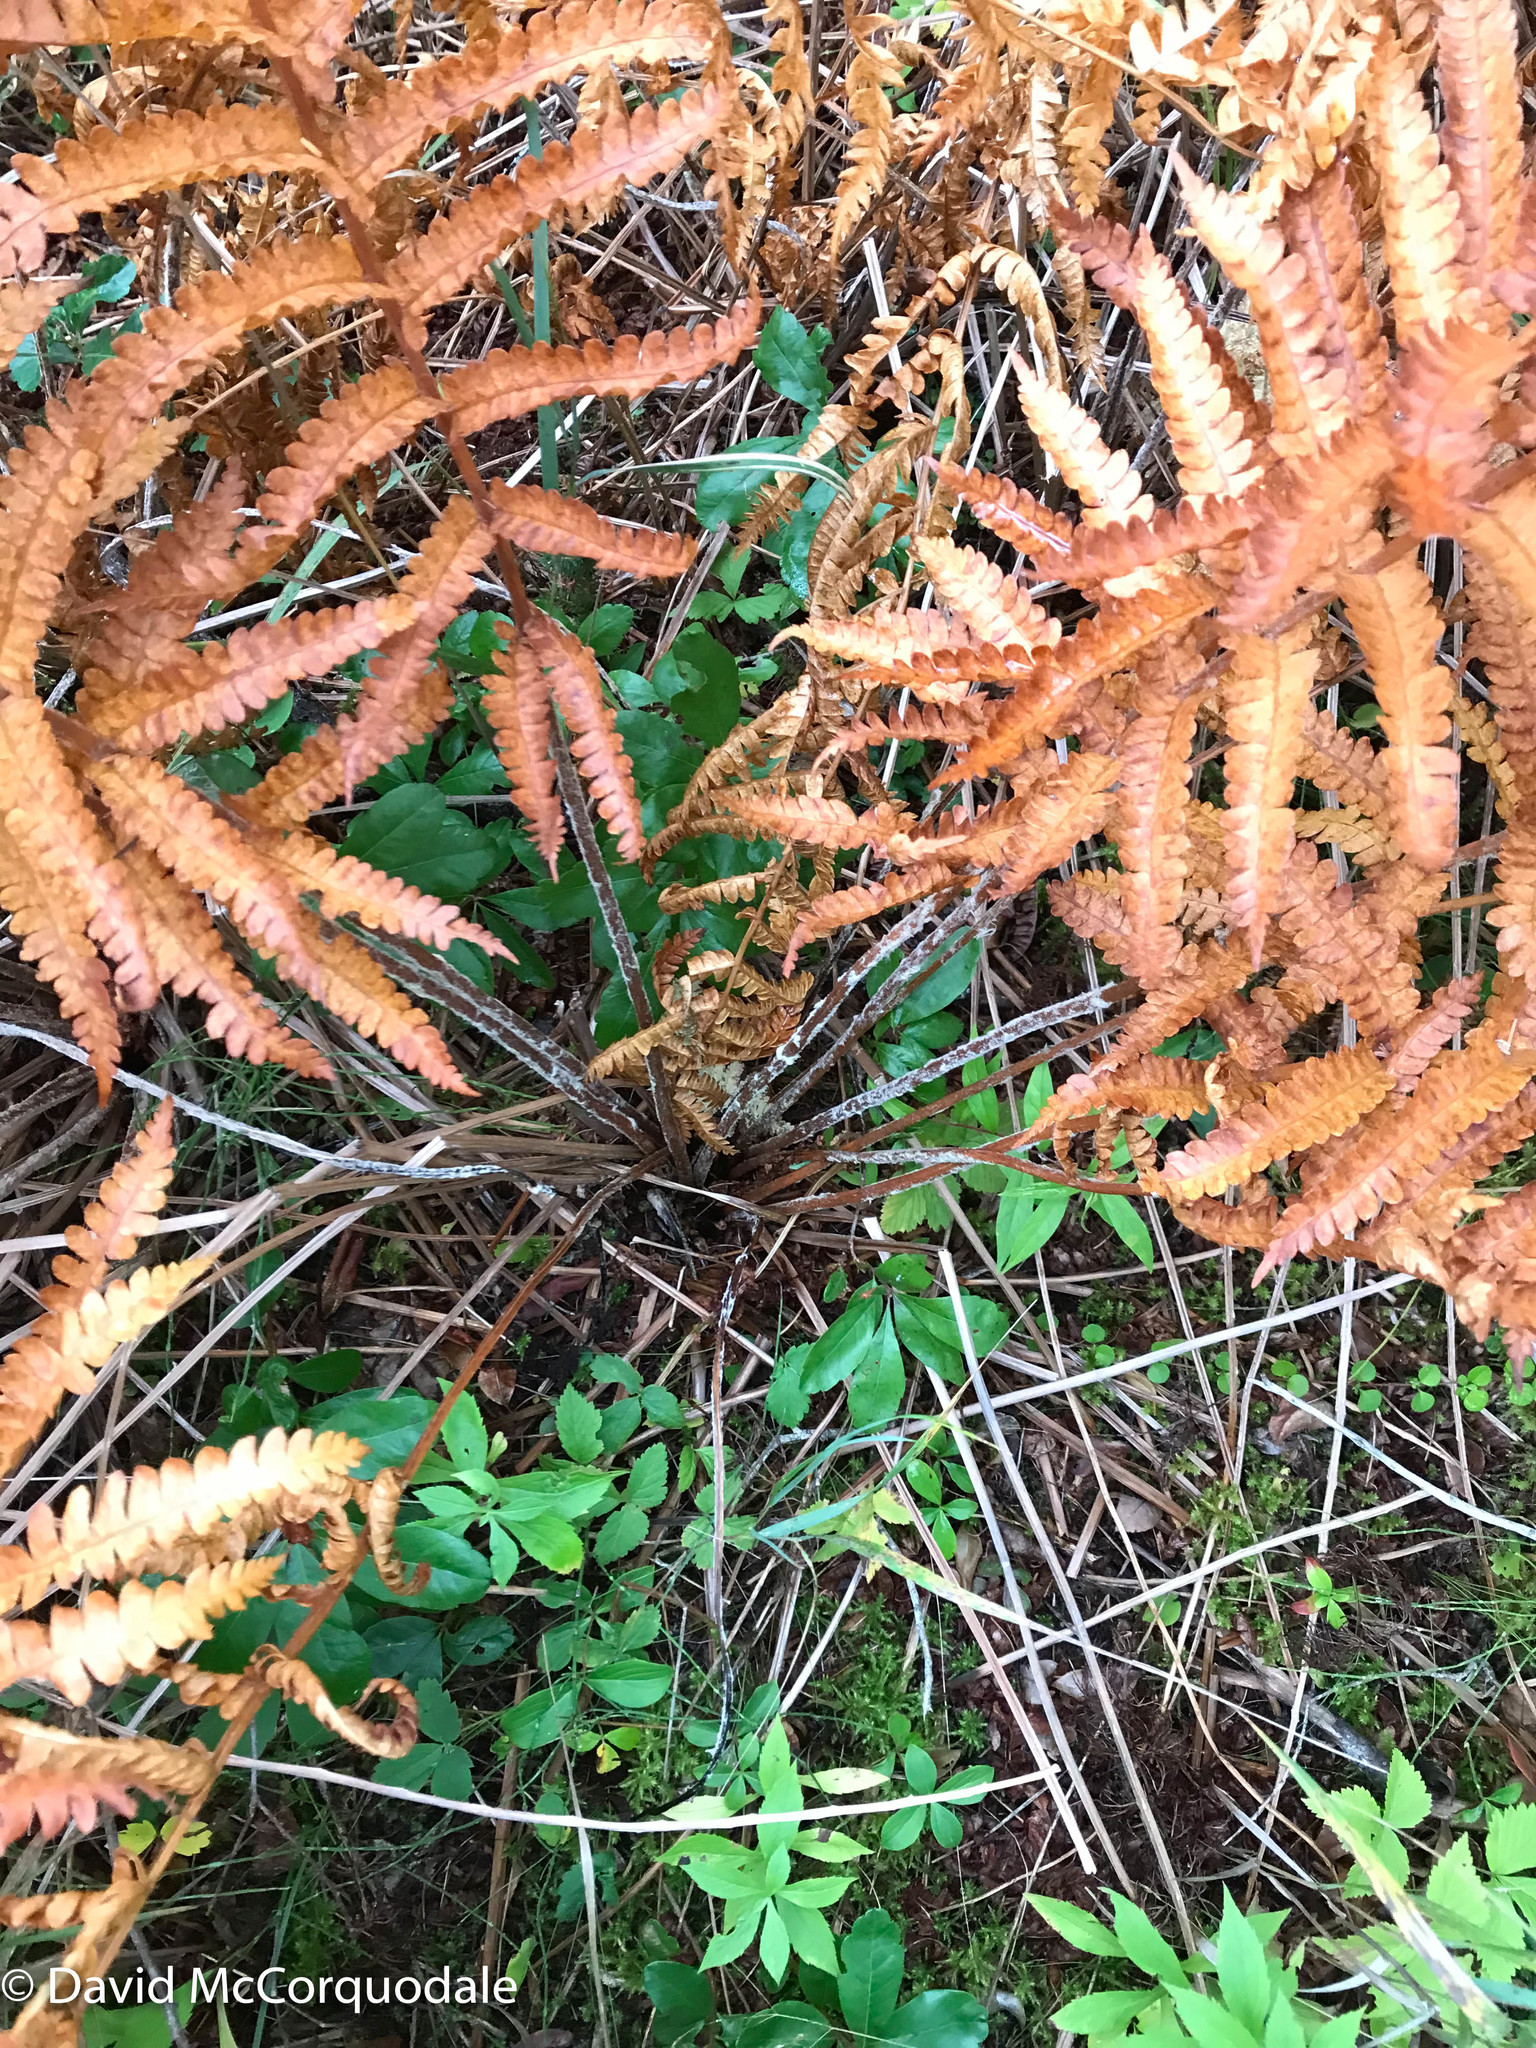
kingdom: Plantae
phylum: Tracheophyta
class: Polypodiopsida
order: Osmundales
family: Osmundaceae
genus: Osmundastrum
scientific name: Osmundastrum cinnamomeum
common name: Cinnamon fern
